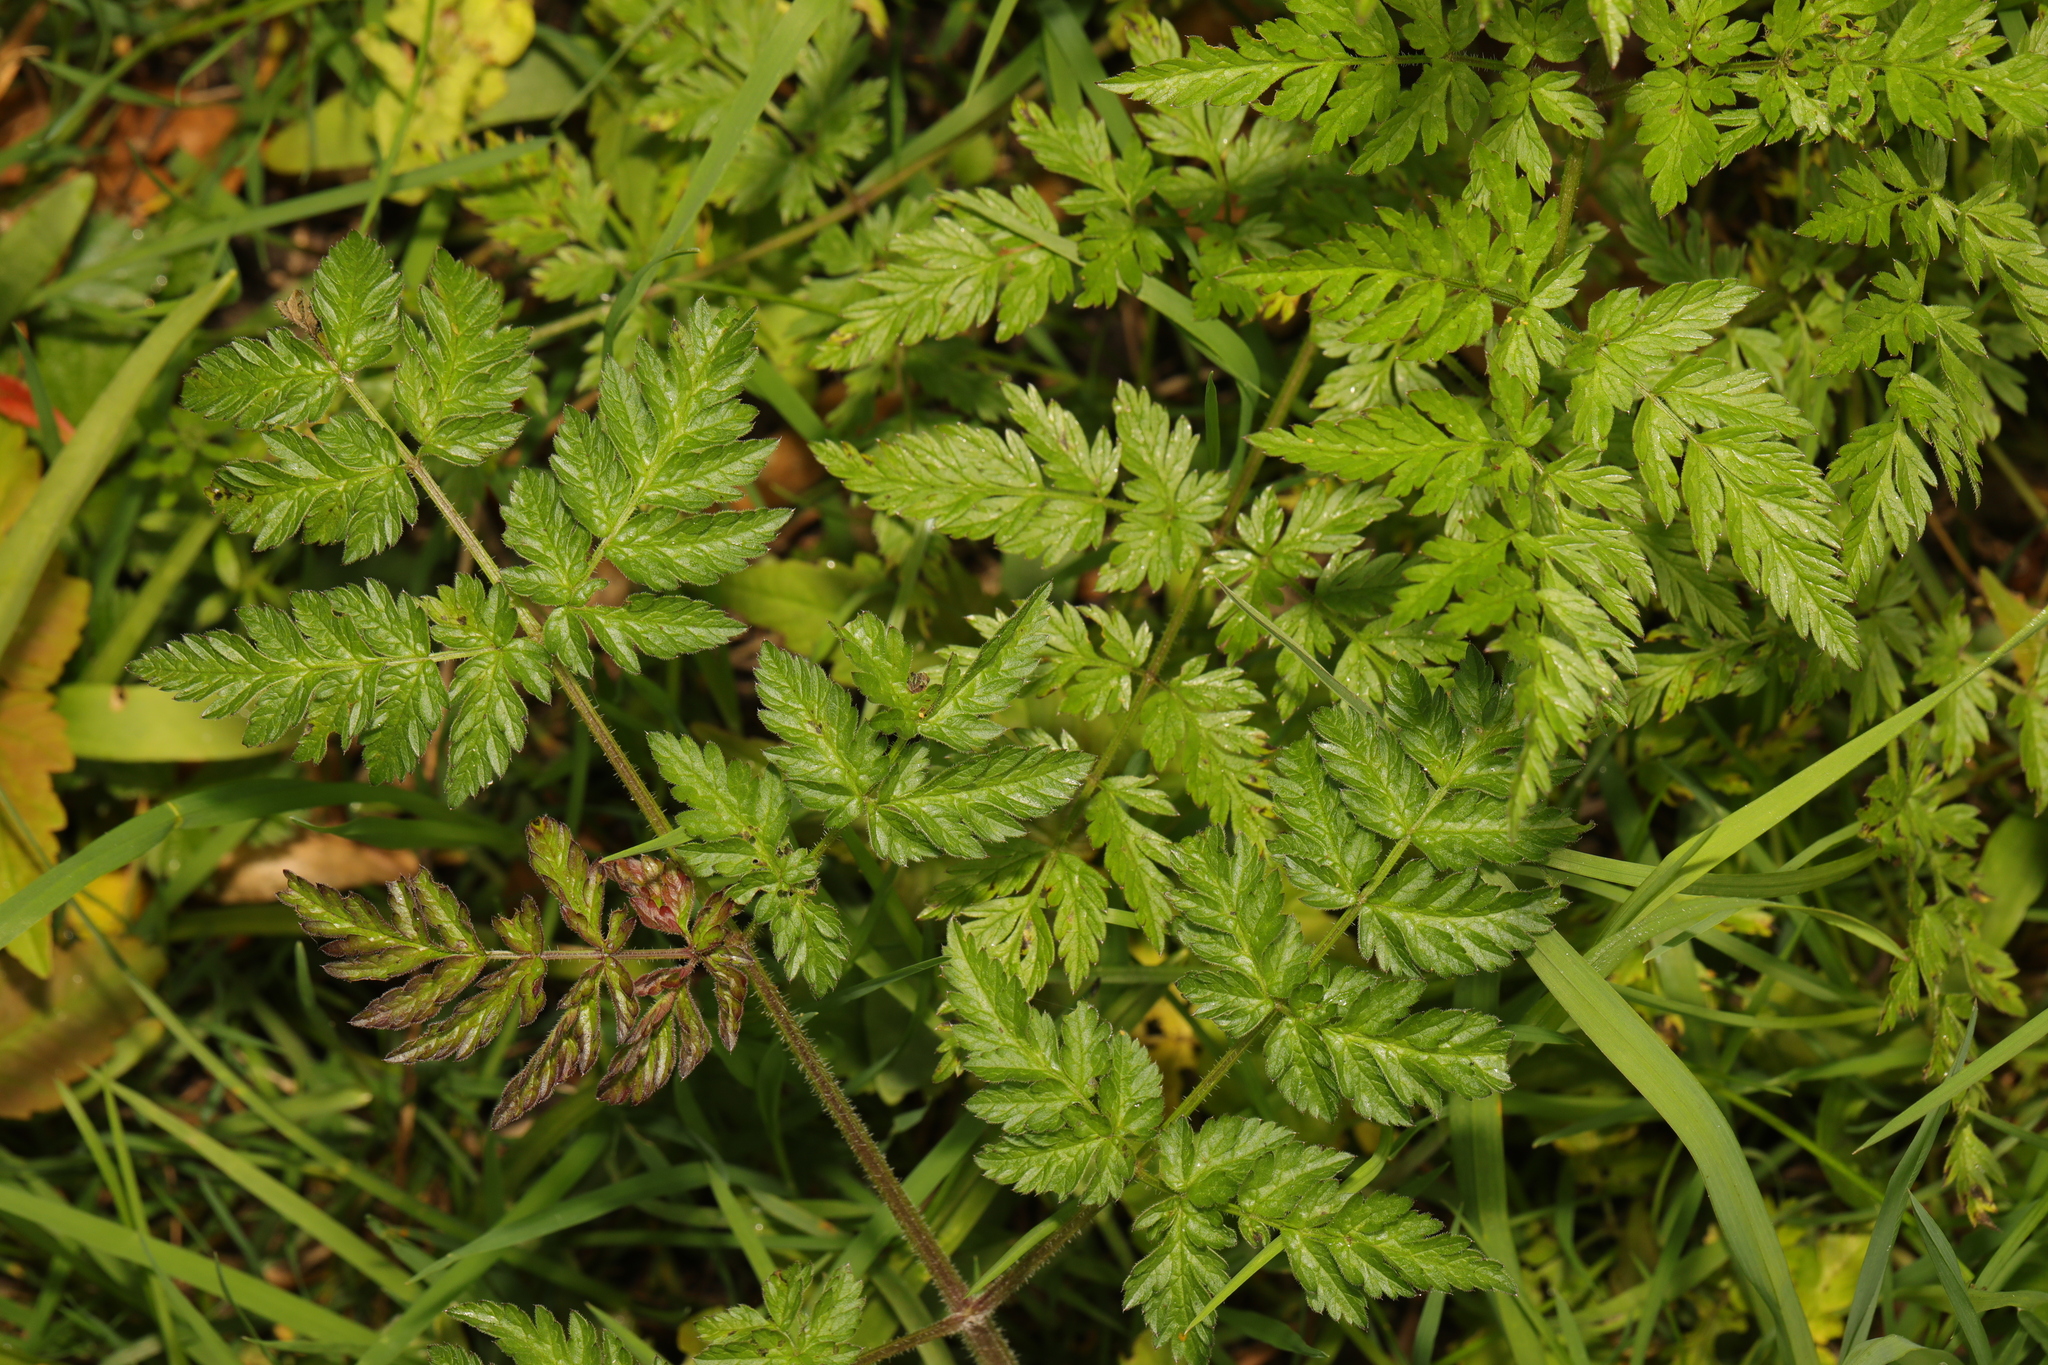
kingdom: Plantae
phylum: Tracheophyta
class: Magnoliopsida
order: Apiales
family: Apiaceae
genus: Anthriscus
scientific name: Anthriscus sylvestris
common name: Cow parsley
